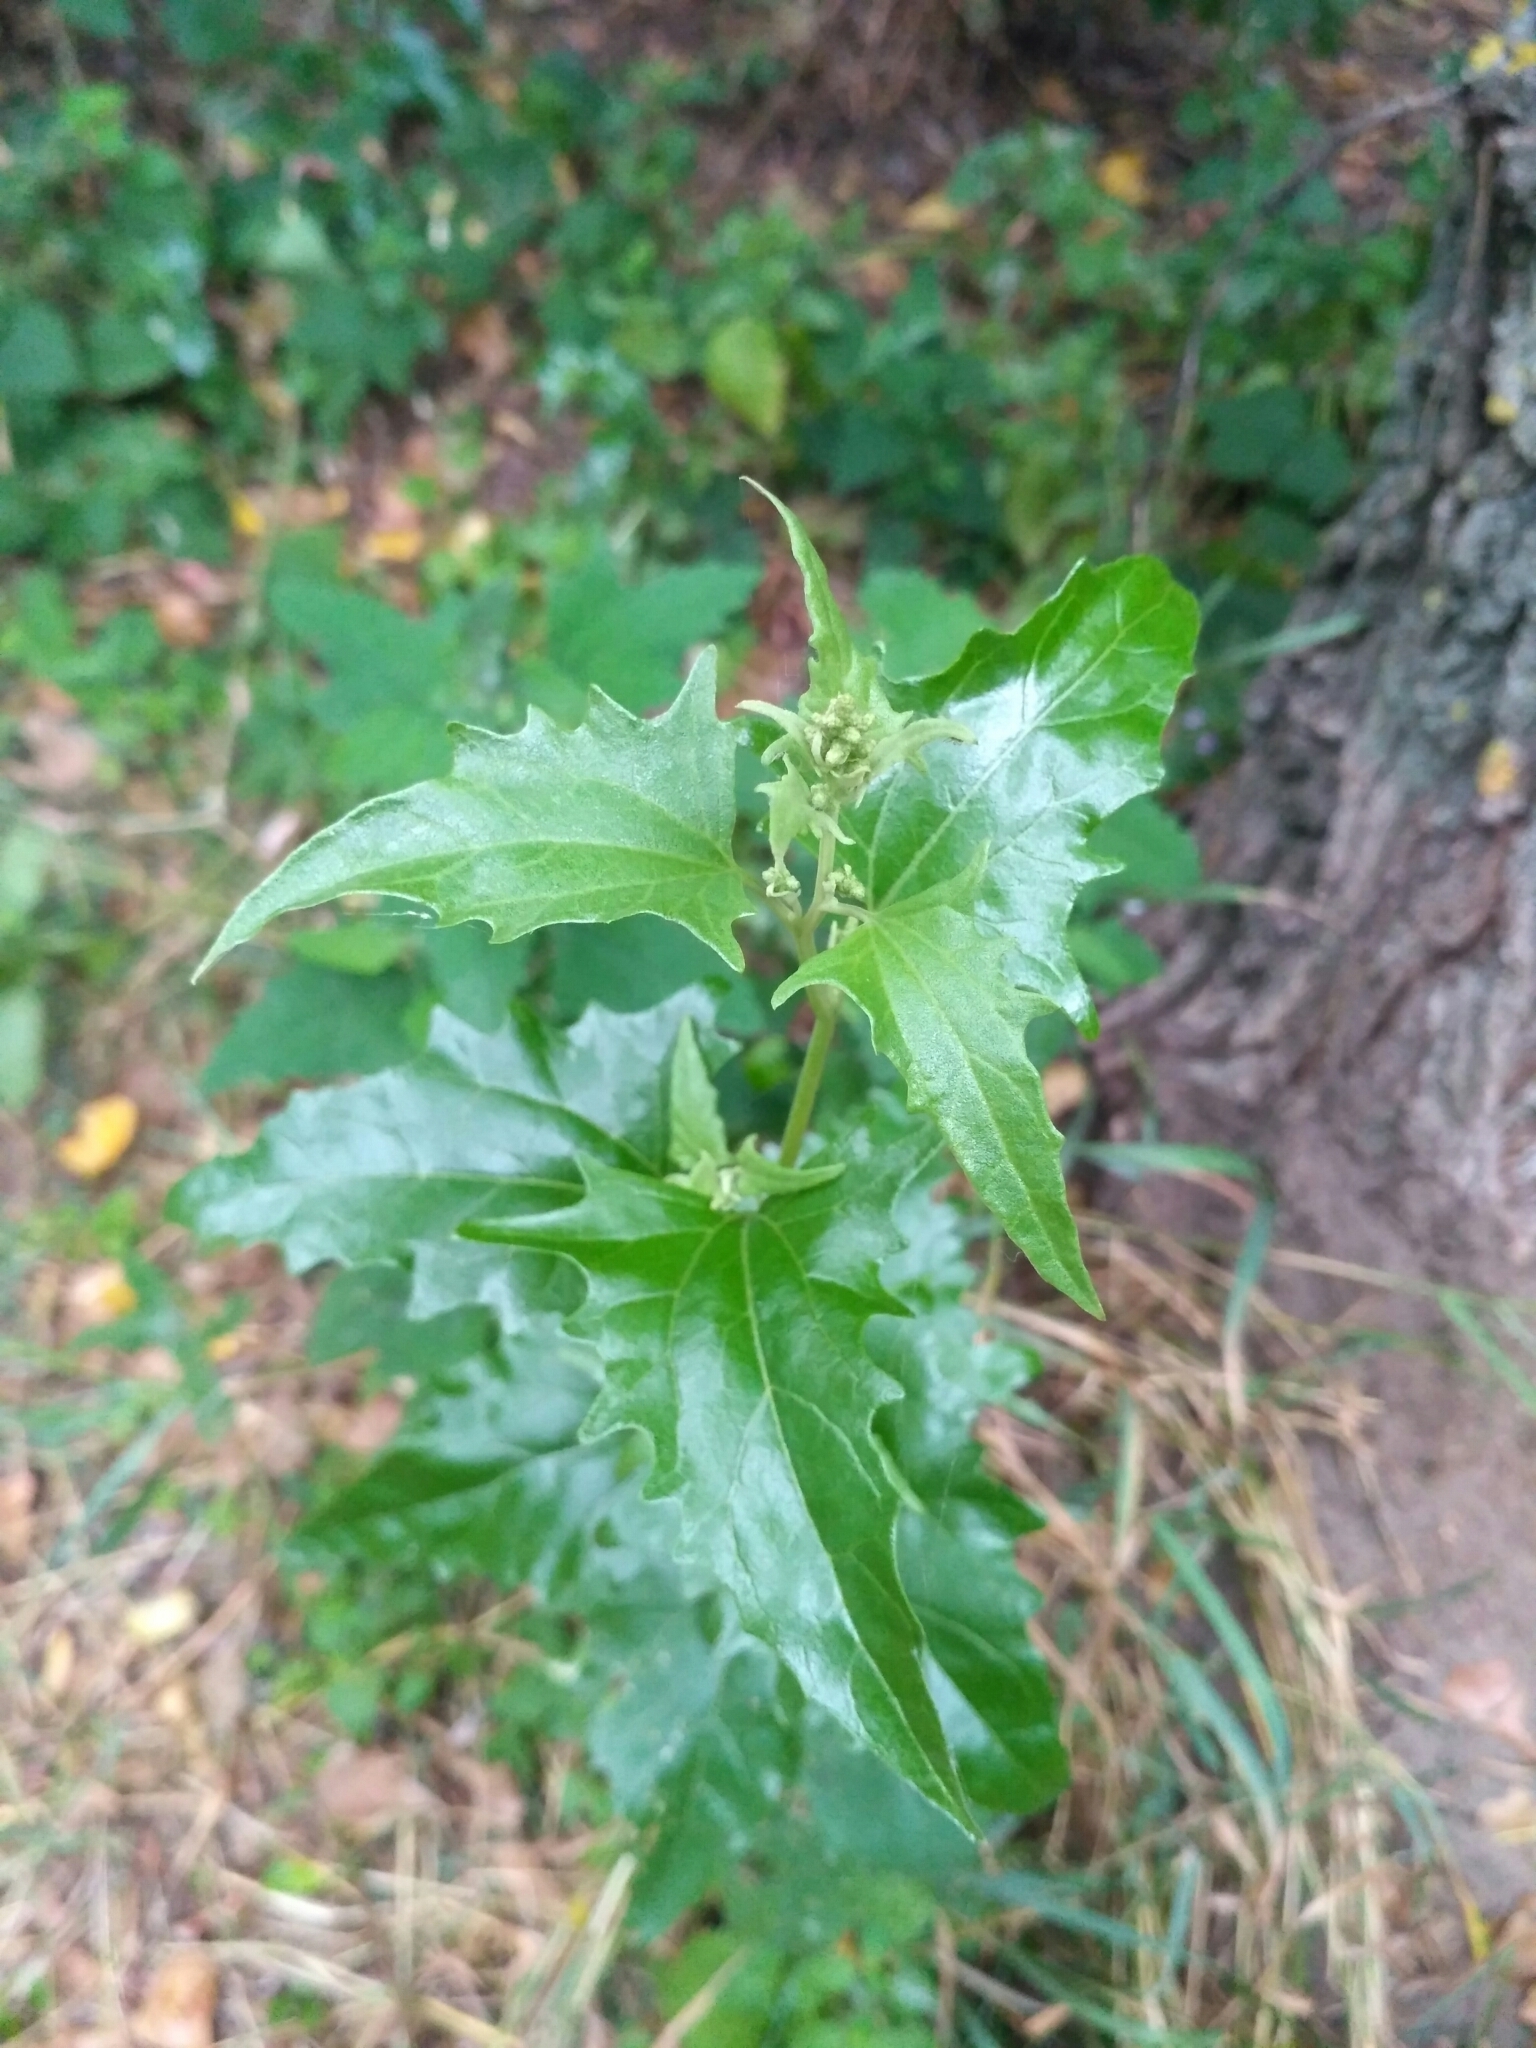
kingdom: Plantae
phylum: Tracheophyta
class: Magnoliopsida
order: Caryophyllales
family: Amaranthaceae
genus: Atriplex
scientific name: Atriplex sagittata
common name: Purple orache
